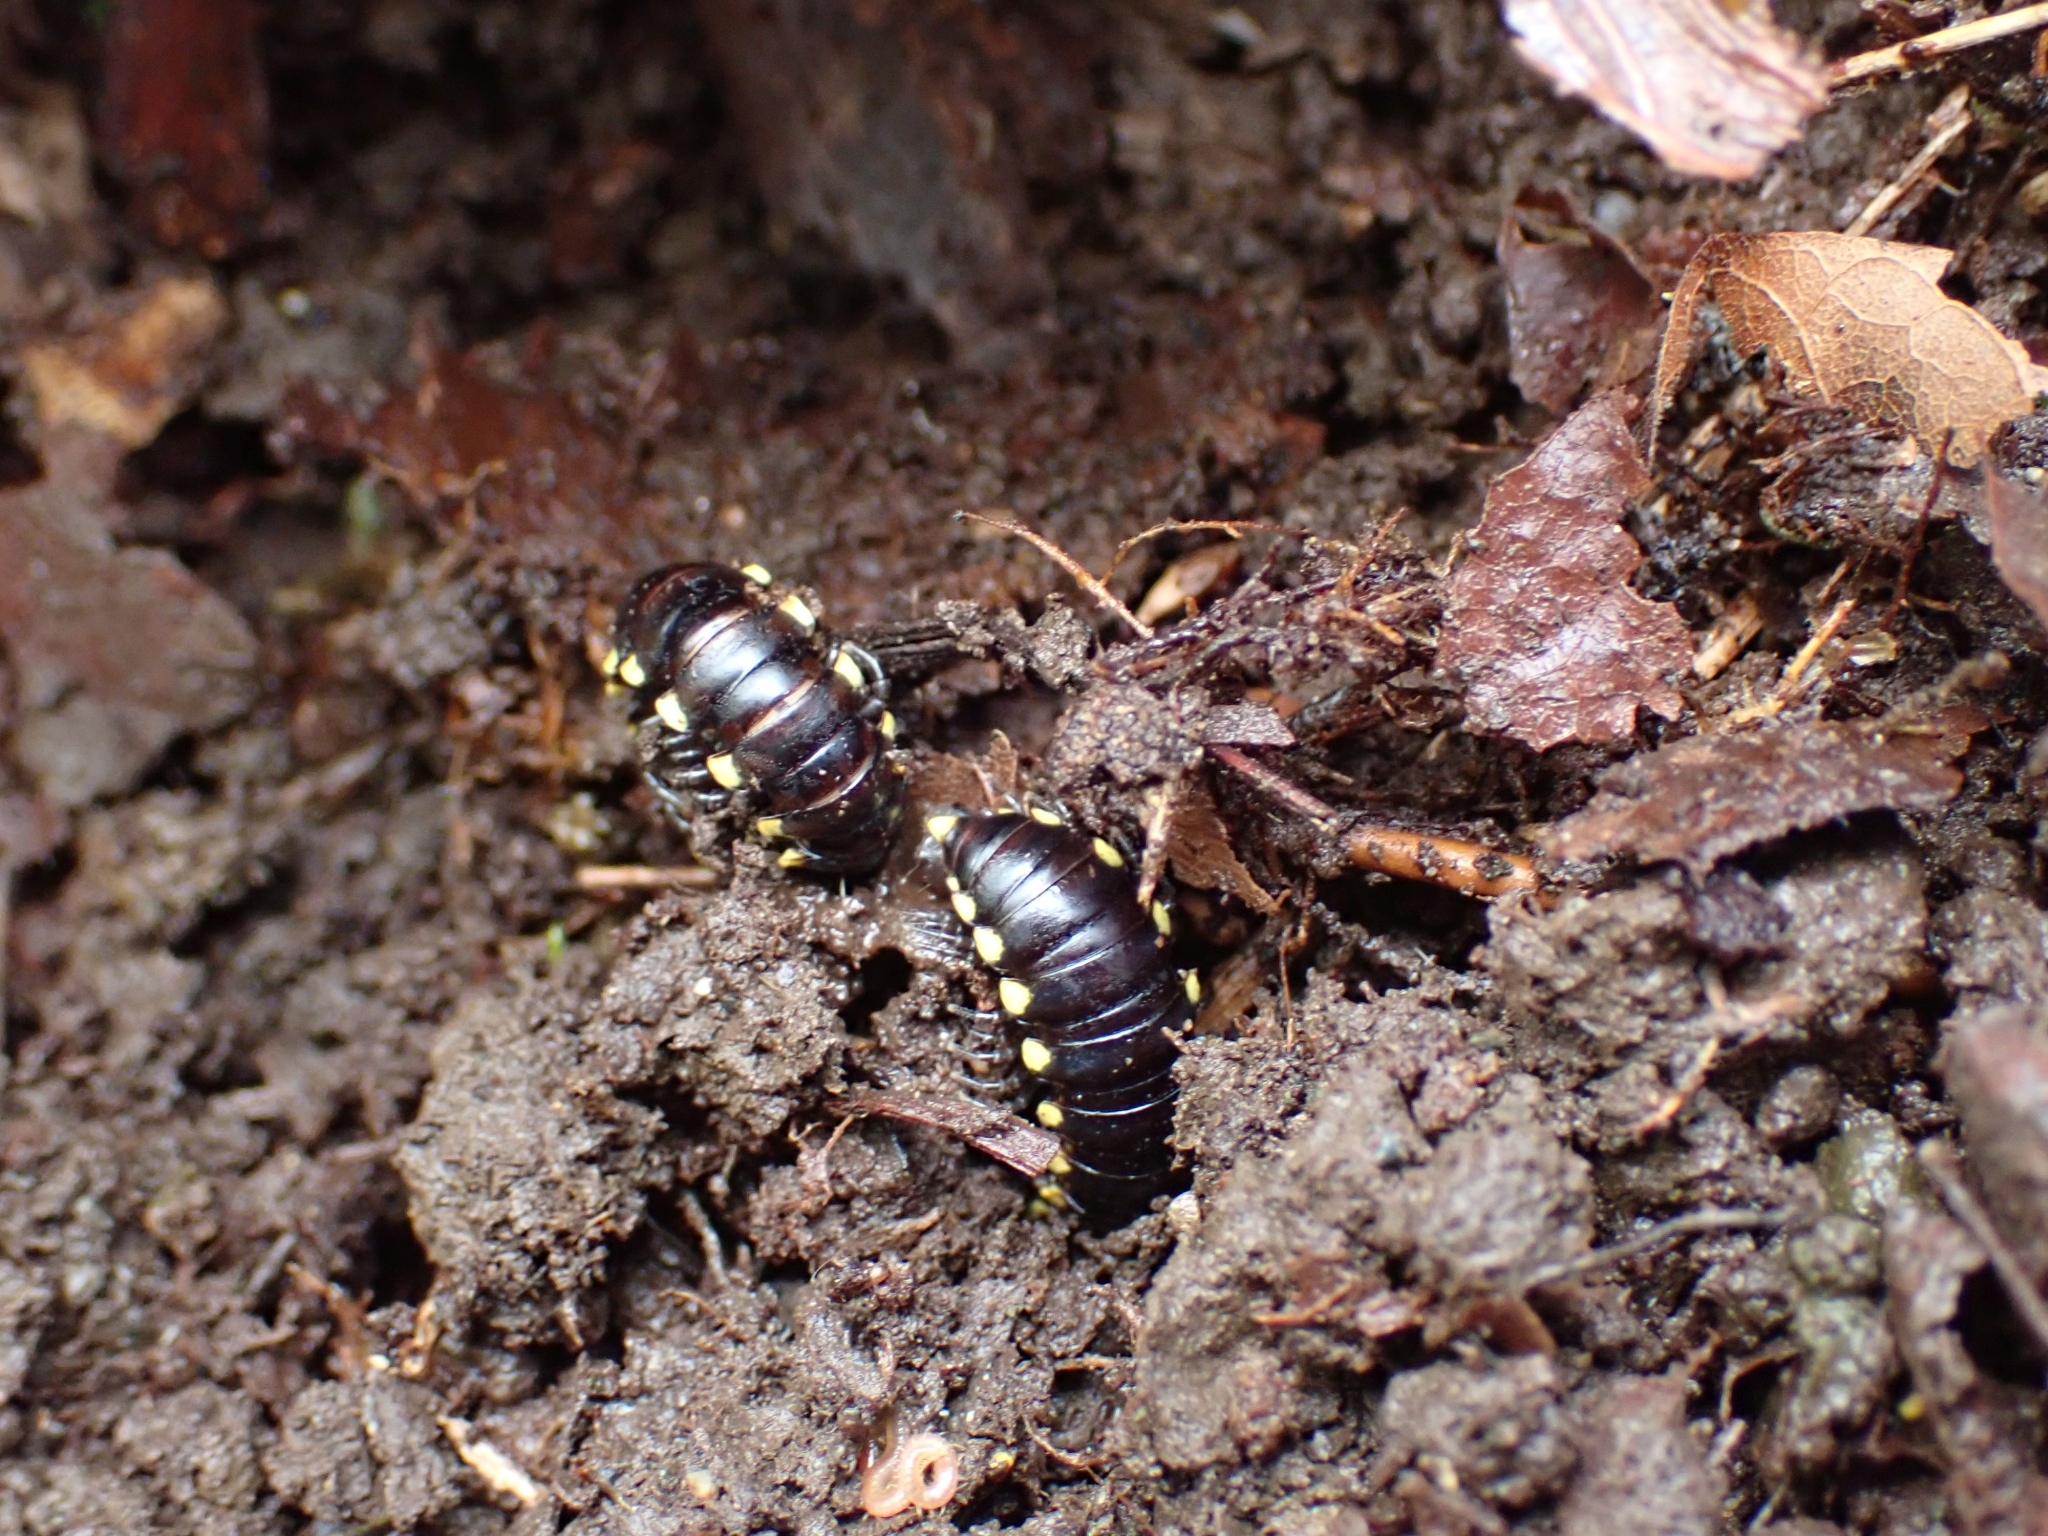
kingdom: Animalia
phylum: Arthropoda
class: Diplopoda
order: Polydesmida
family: Xystodesmidae
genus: Harpaphe
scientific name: Harpaphe haydeniana
